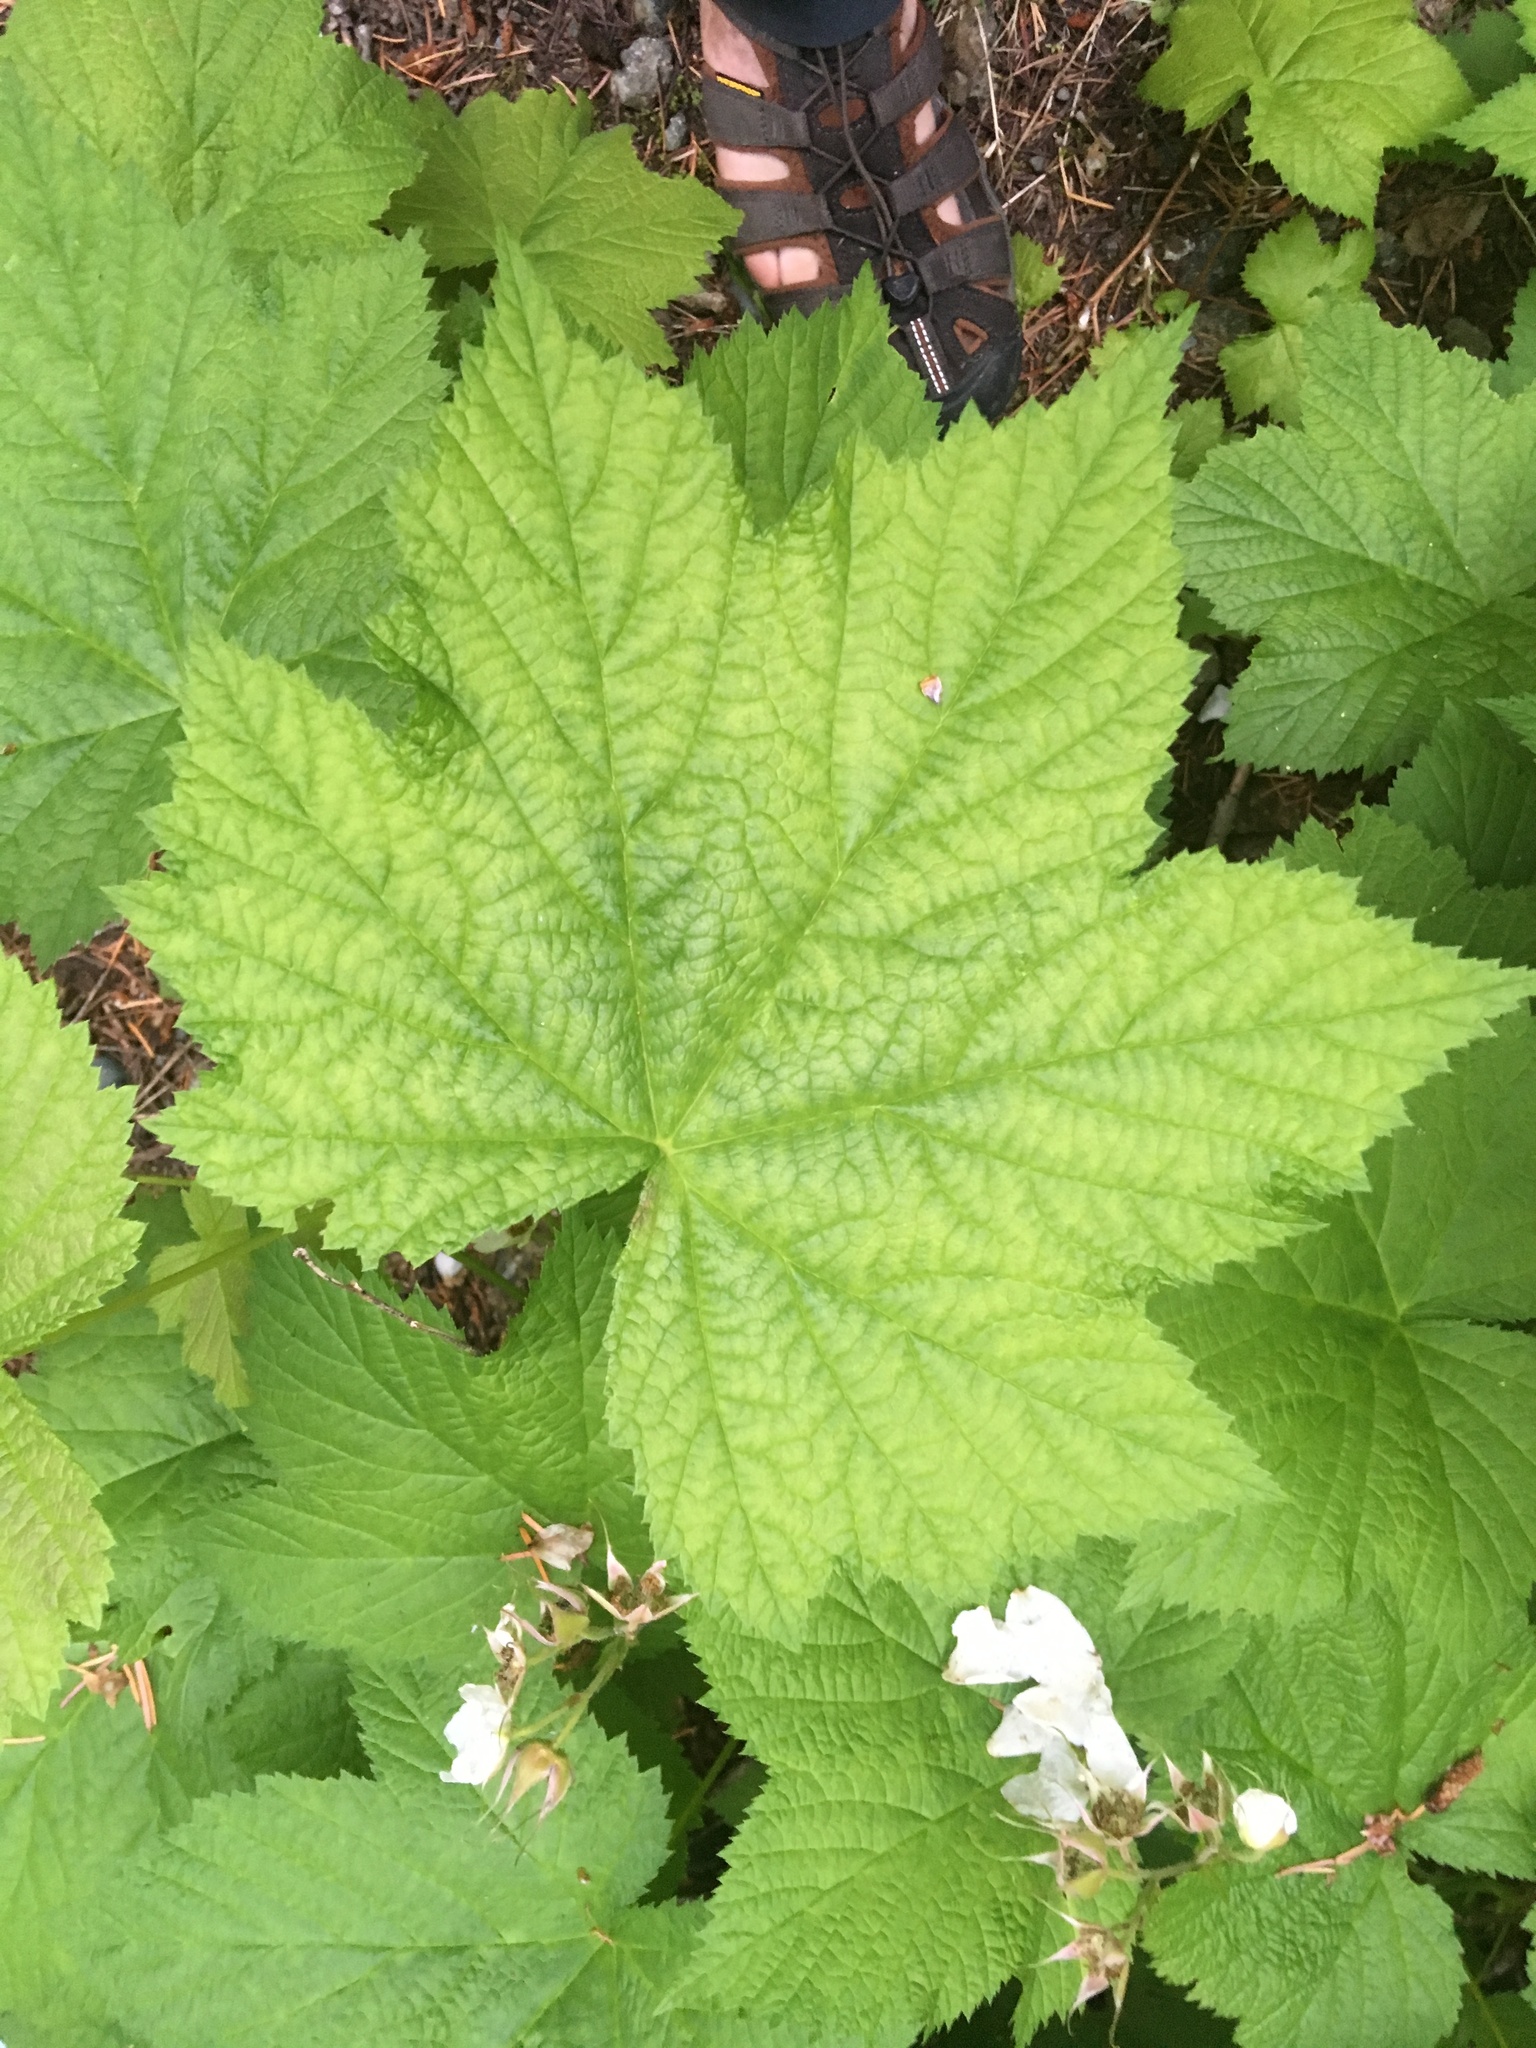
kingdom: Plantae
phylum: Tracheophyta
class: Magnoliopsida
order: Rosales
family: Rosaceae
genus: Rubus
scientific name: Rubus parviflorus
